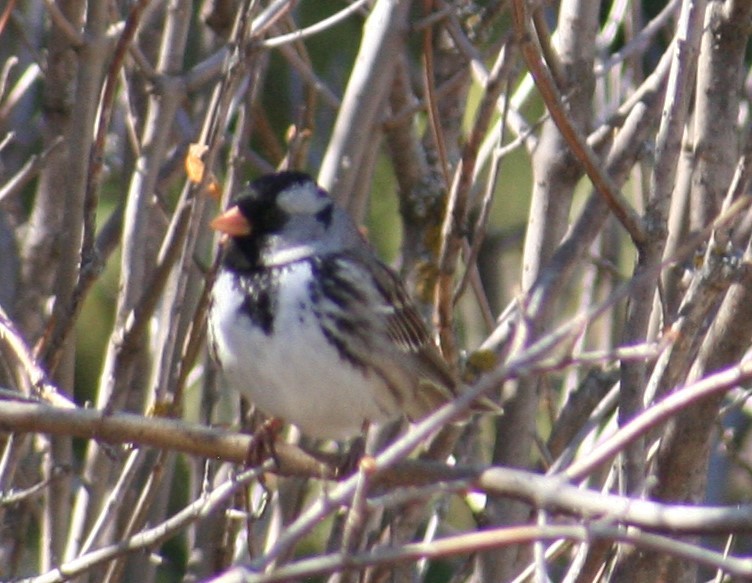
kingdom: Animalia
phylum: Chordata
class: Aves
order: Passeriformes
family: Passerellidae
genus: Zonotrichia
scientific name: Zonotrichia querula
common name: Harris's sparrow
